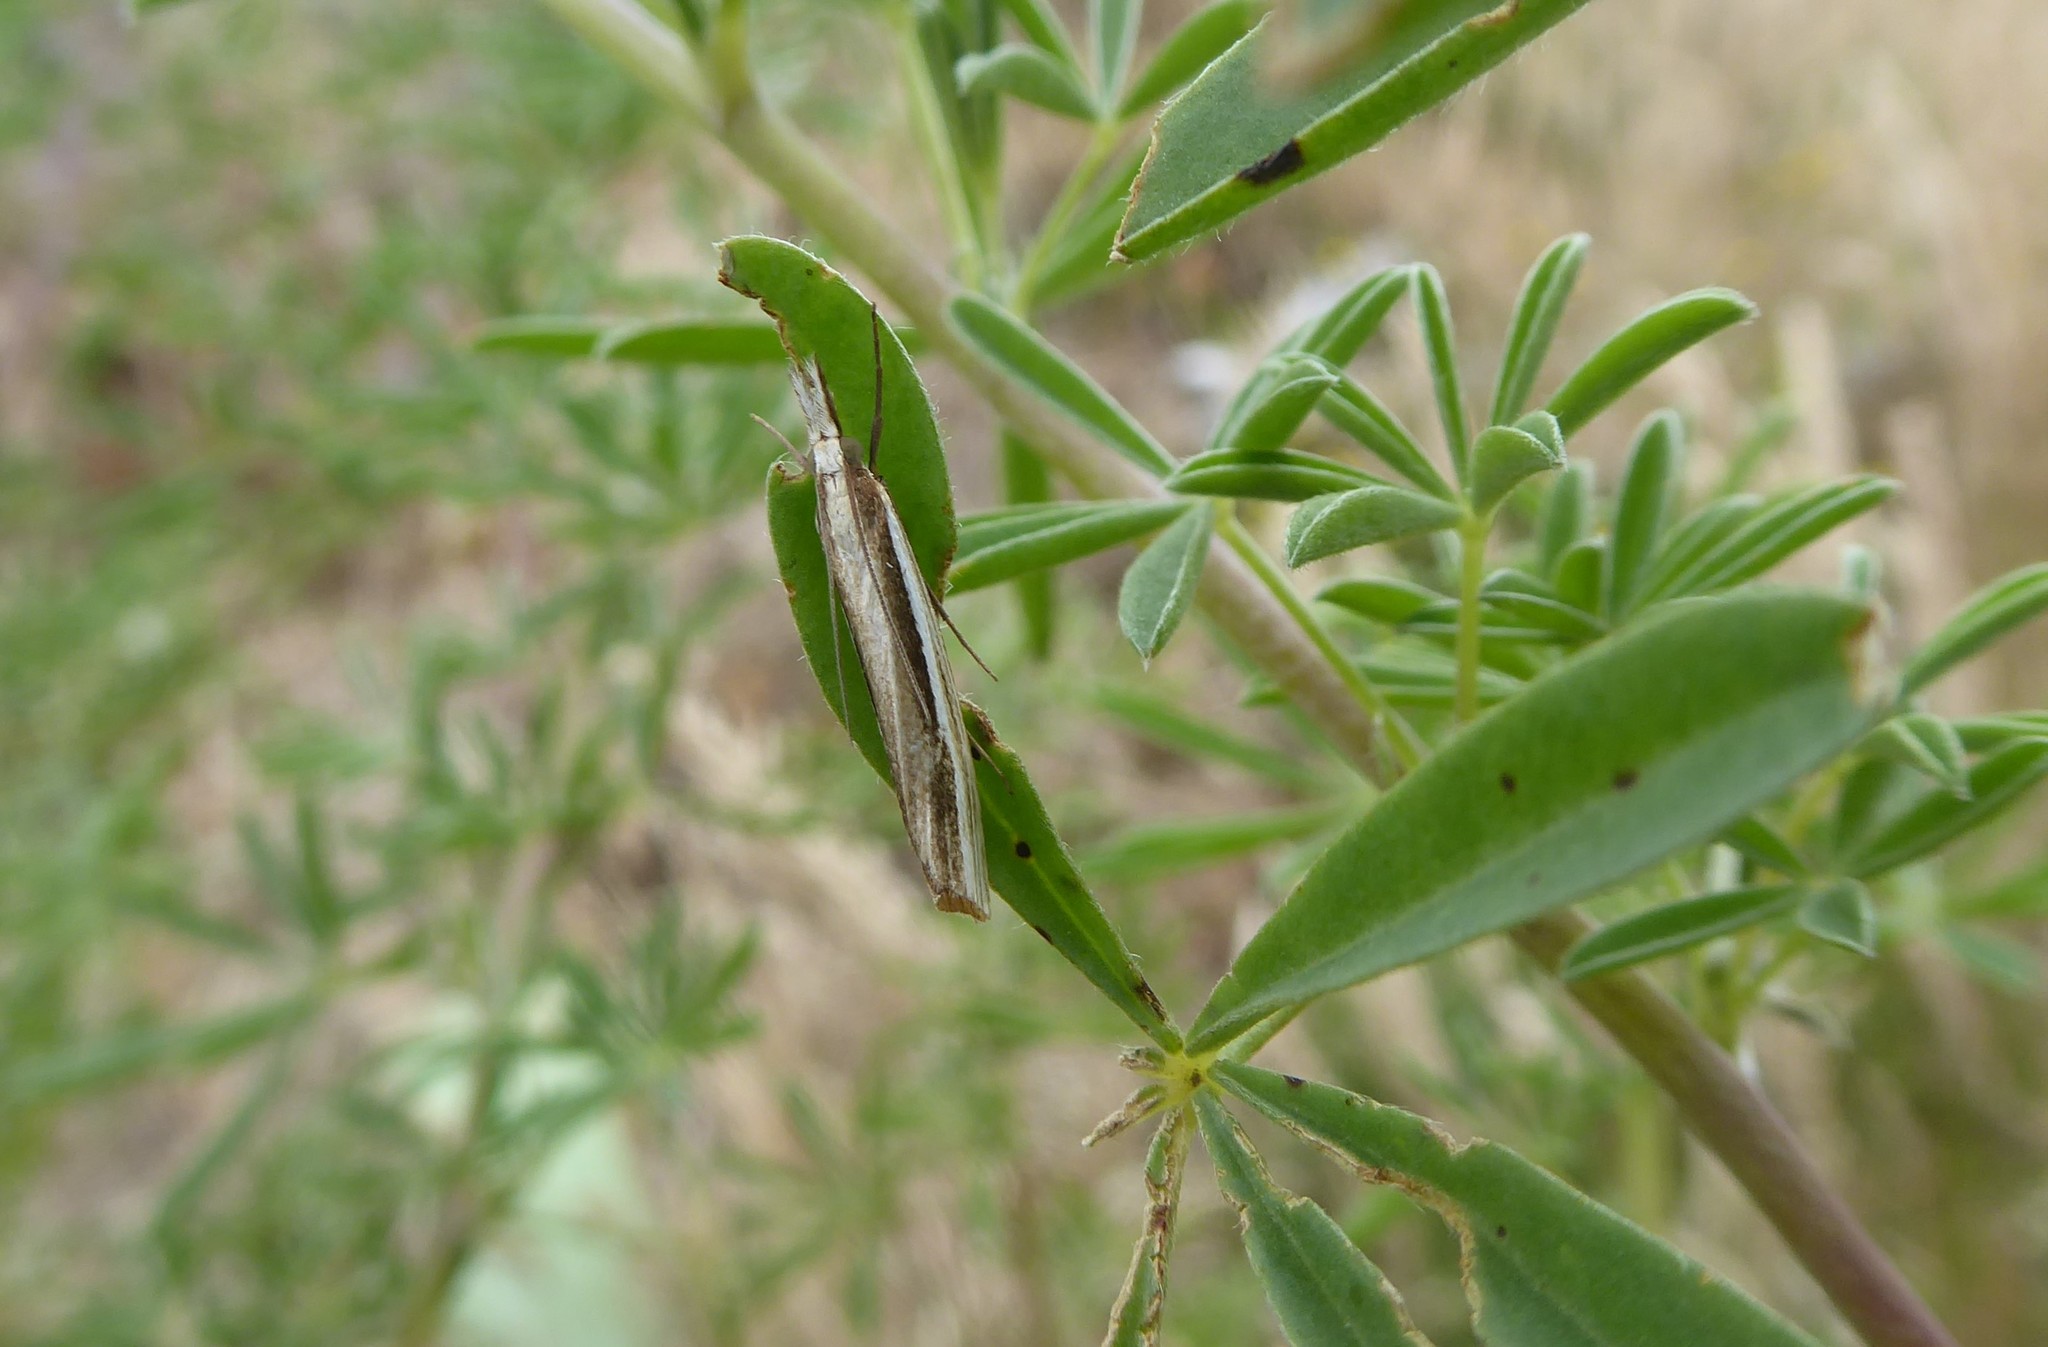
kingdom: Animalia
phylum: Arthropoda
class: Insecta
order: Lepidoptera
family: Crambidae
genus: Orocrambus
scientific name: Orocrambus ramosellus
